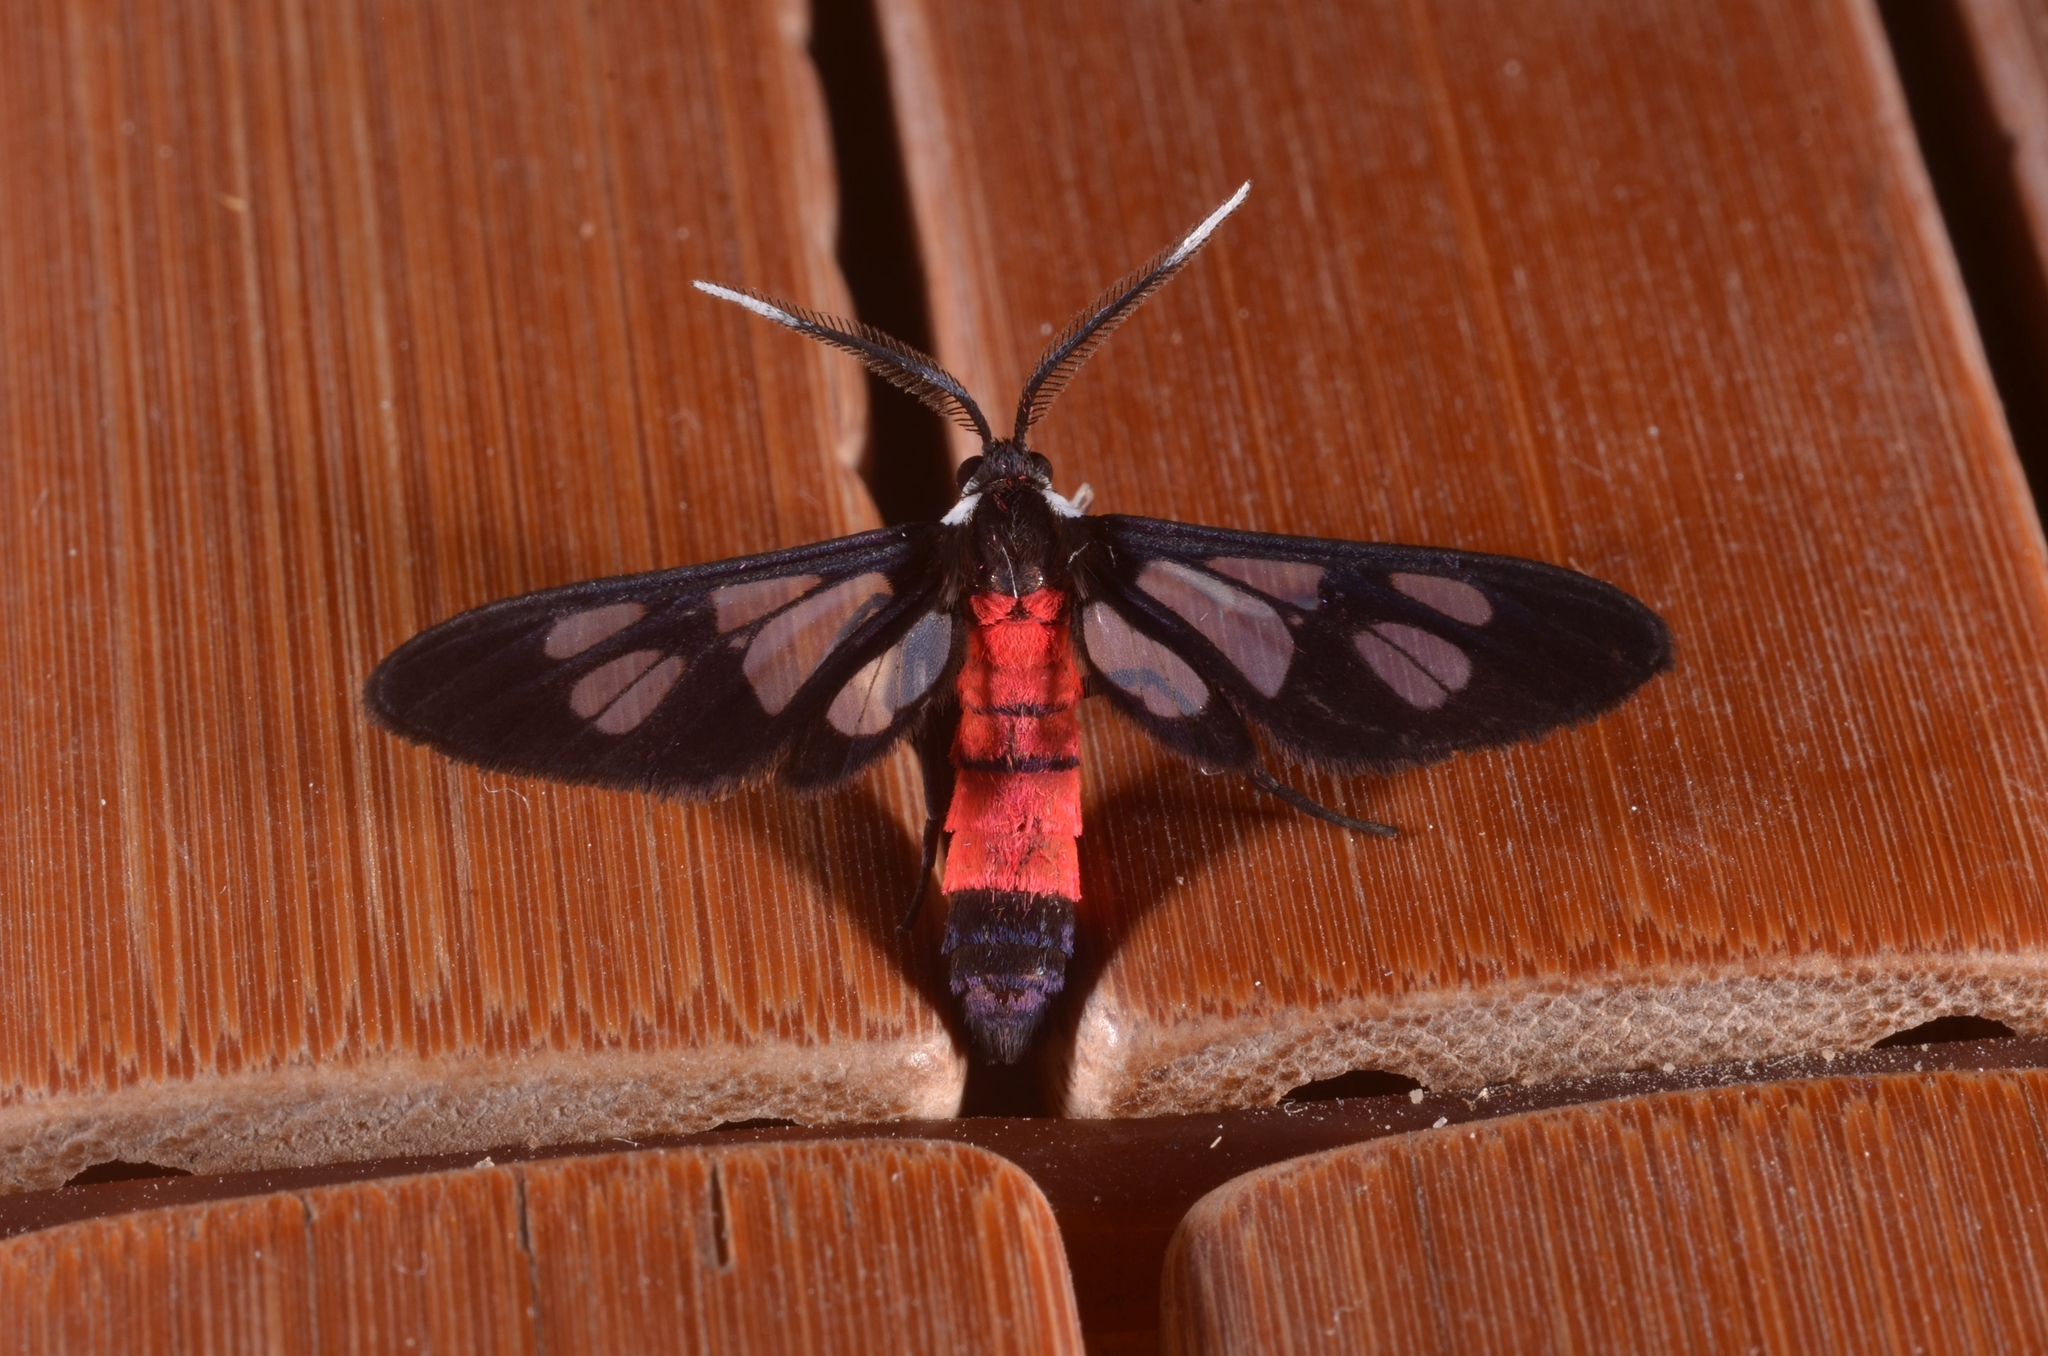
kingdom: Animalia
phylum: Arthropoda
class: Insecta
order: Lepidoptera
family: Erebidae
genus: Amata
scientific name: Amata leopoldi
